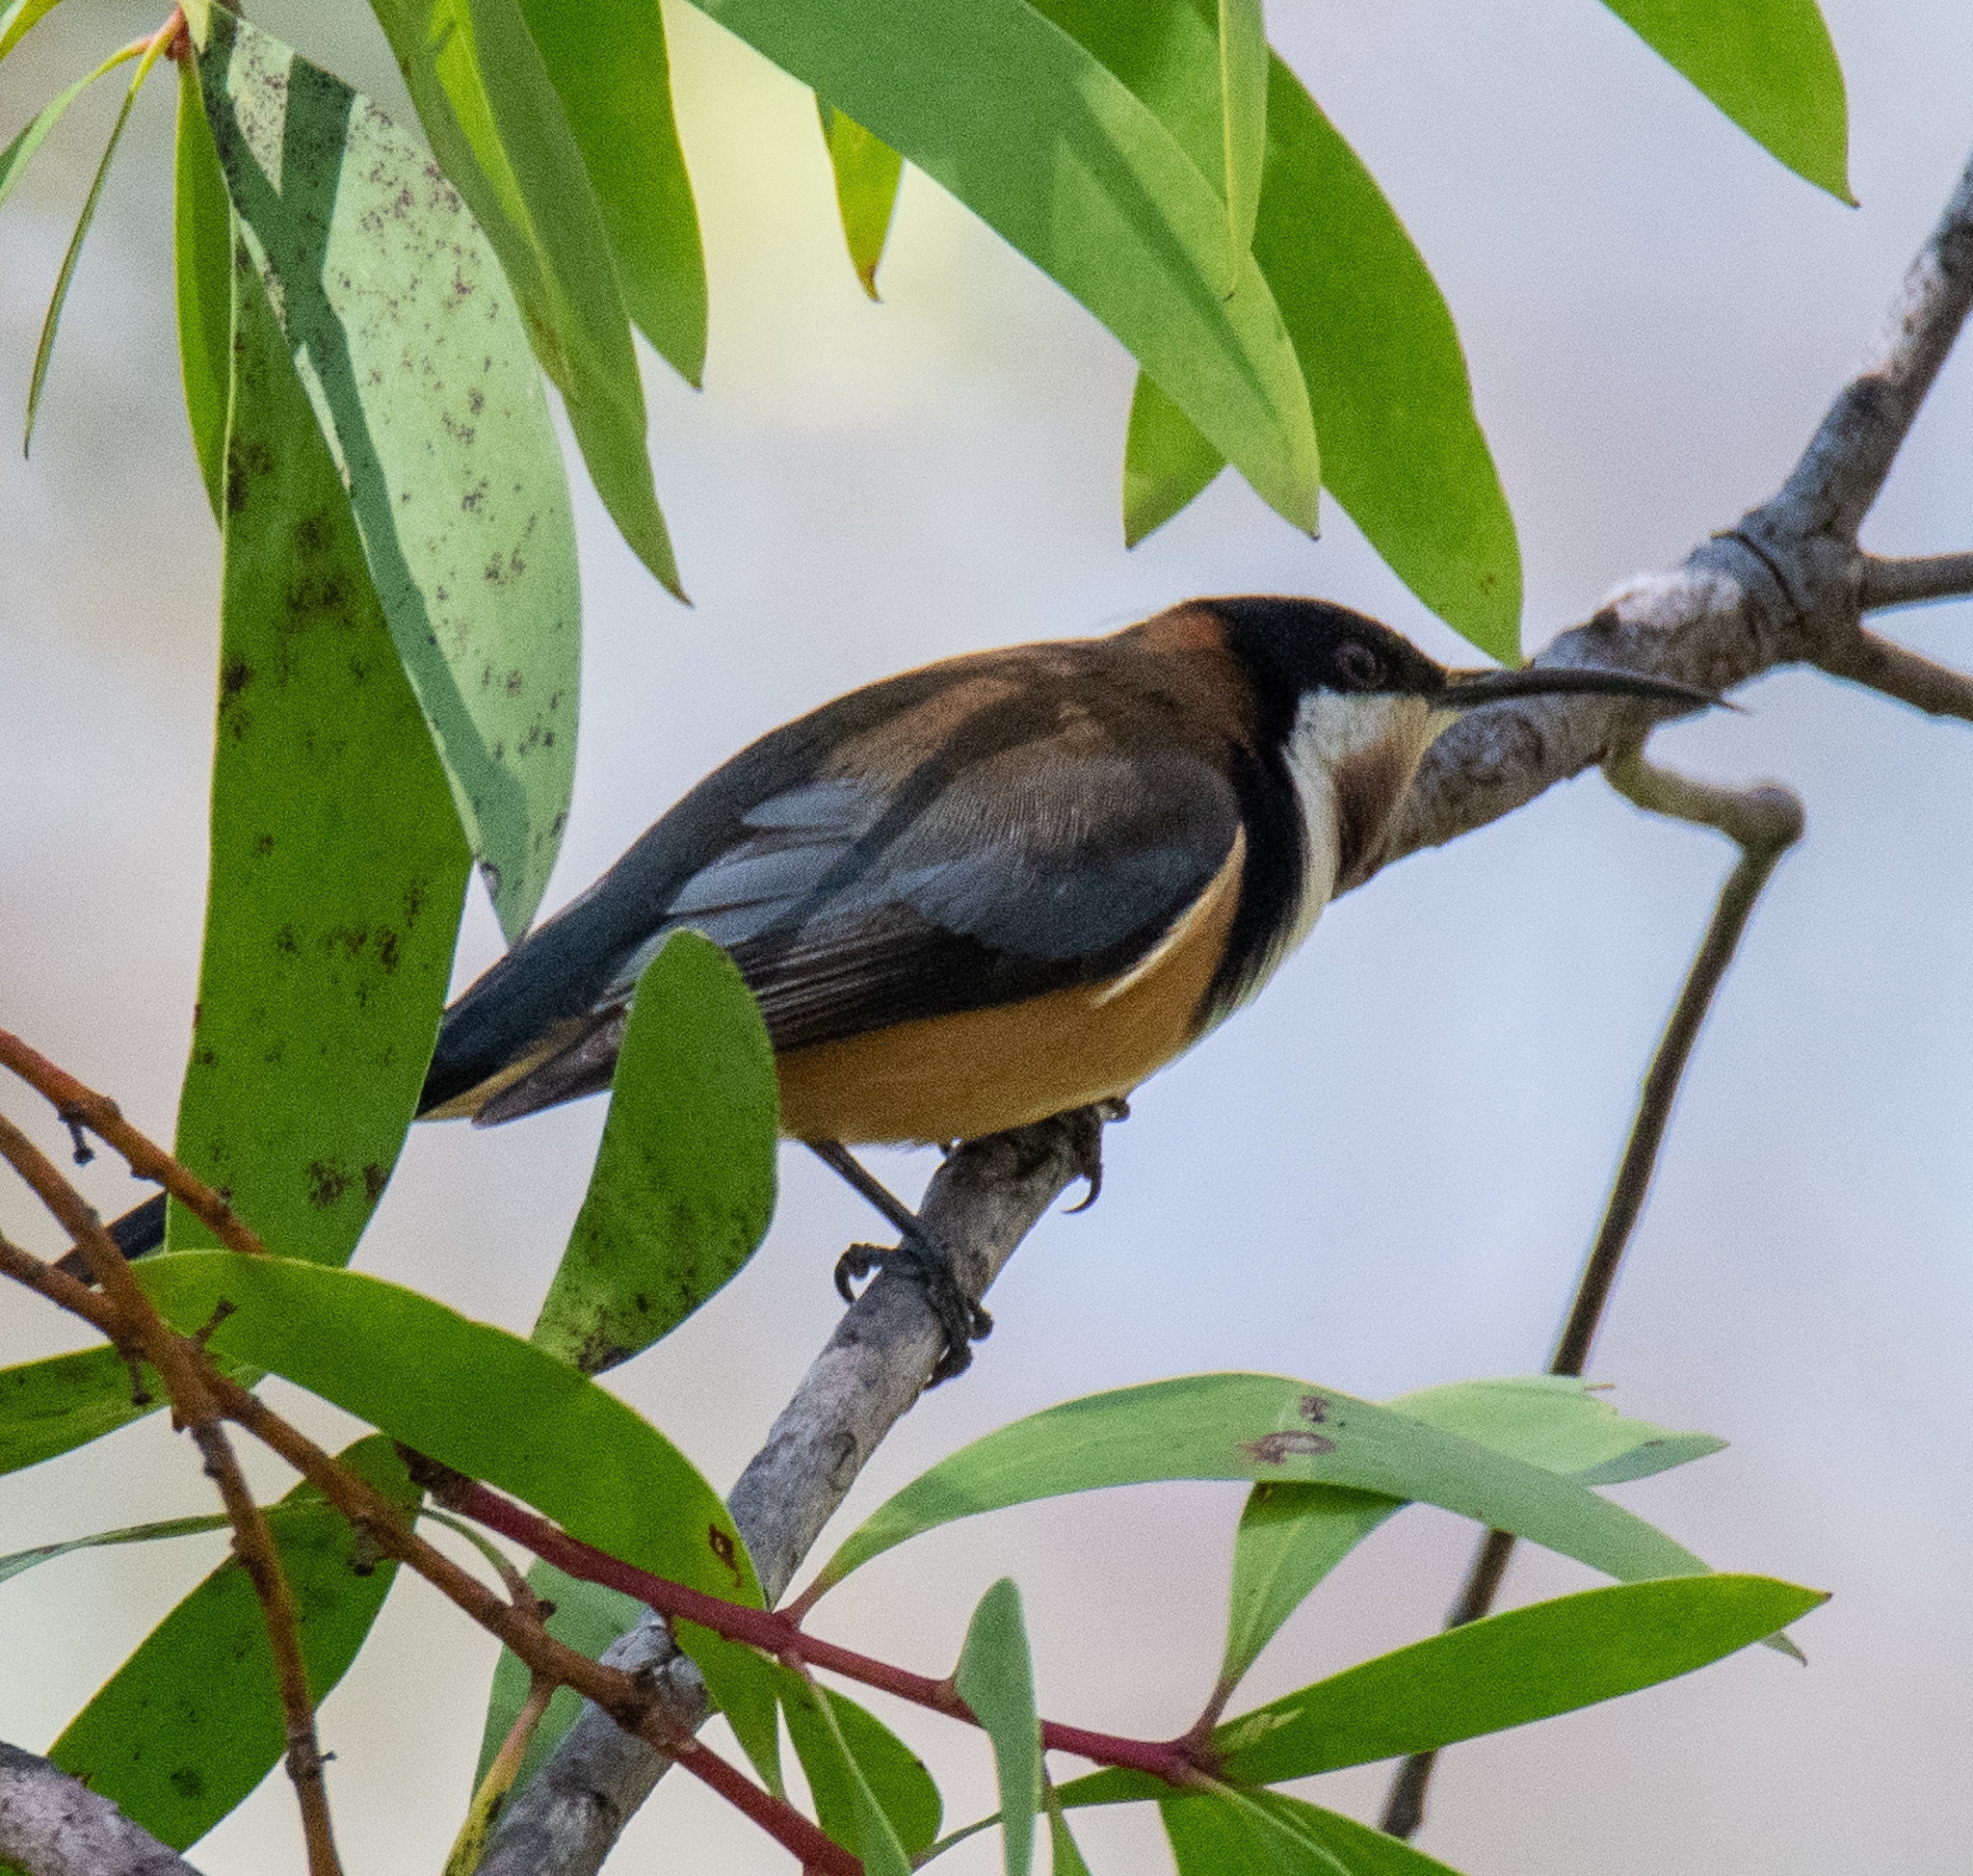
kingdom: Animalia
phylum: Chordata
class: Aves
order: Passeriformes
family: Meliphagidae
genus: Acanthorhynchus
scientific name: Acanthorhynchus tenuirostris
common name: Eastern spinebill
